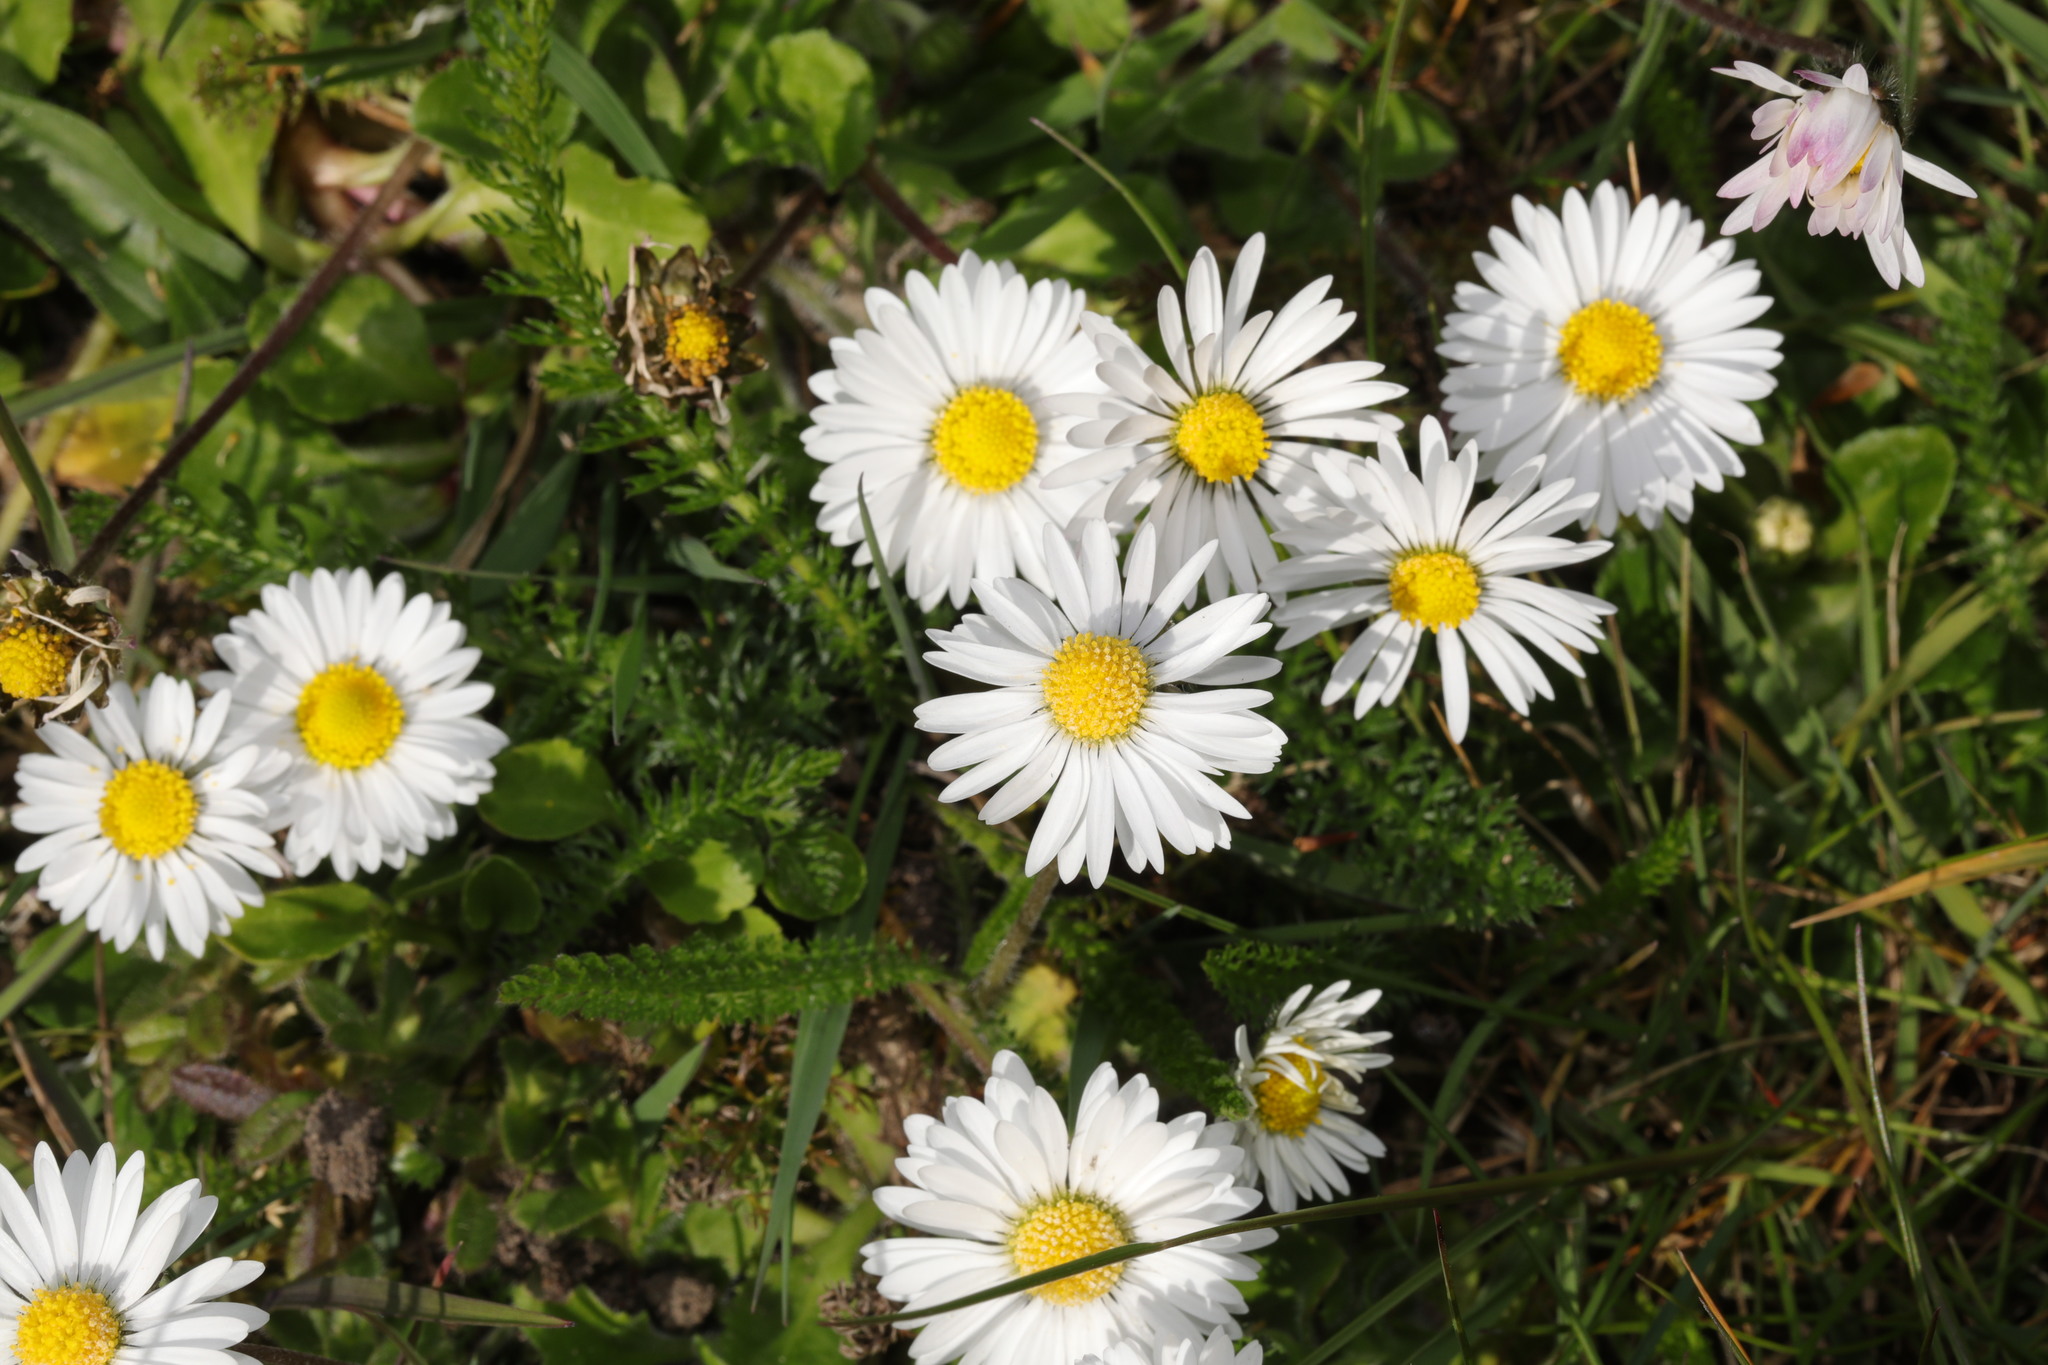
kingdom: Plantae
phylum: Tracheophyta
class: Magnoliopsida
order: Asterales
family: Asteraceae
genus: Bellis
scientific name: Bellis perennis
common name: Lawndaisy
